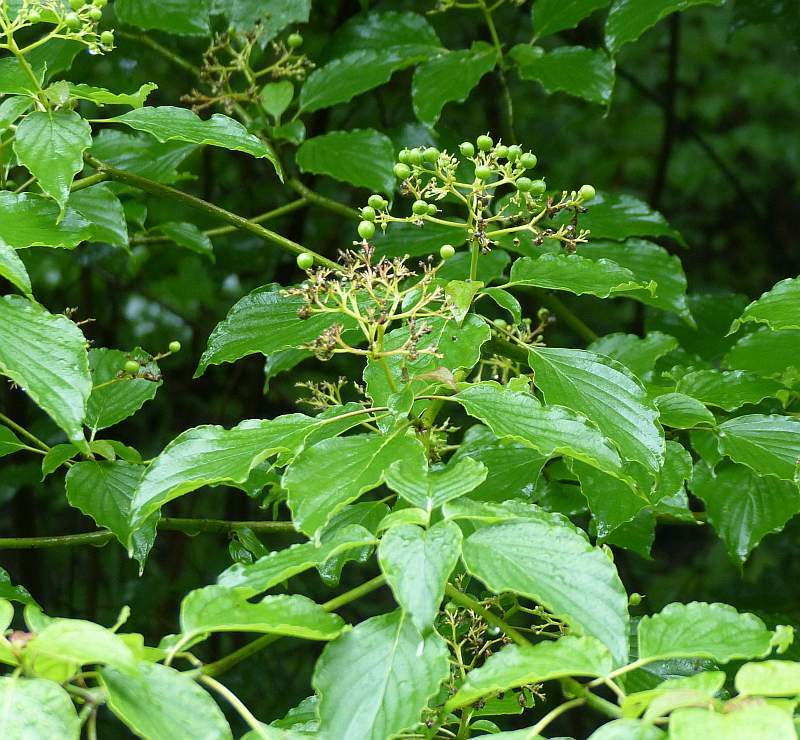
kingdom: Plantae
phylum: Tracheophyta
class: Magnoliopsida
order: Cornales
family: Cornaceae
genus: Cornus
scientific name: Cornus alternifolia
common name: Pagoda dogwood
